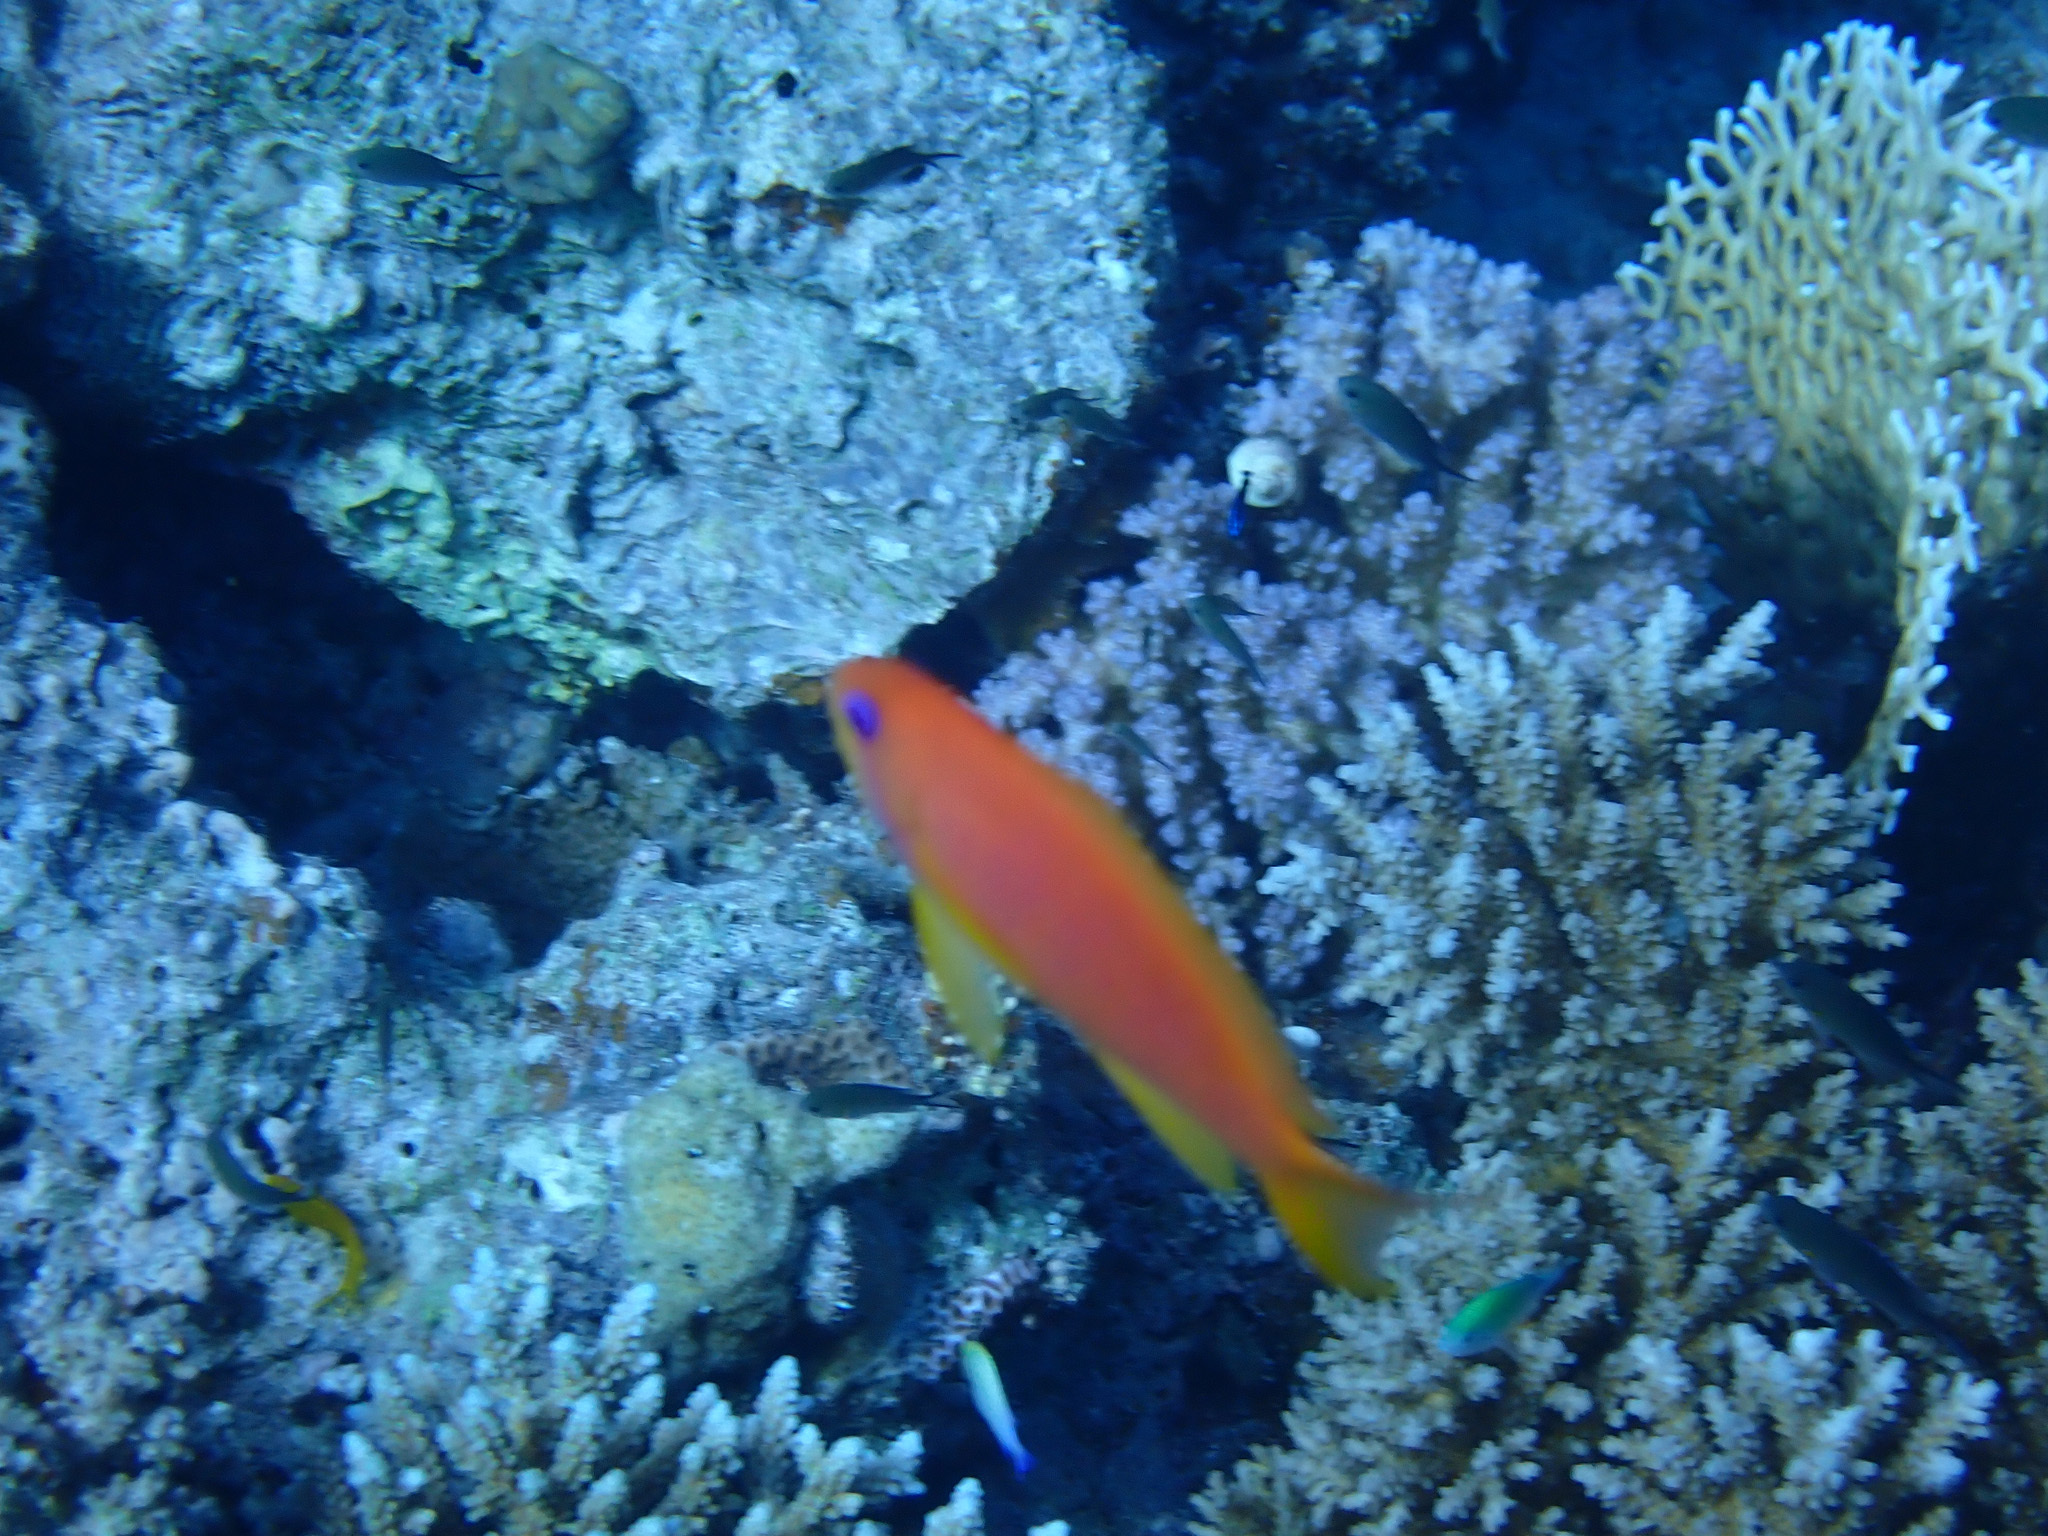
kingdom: Animalia
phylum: Chordata
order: Perciformes
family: Serranidae
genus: Pseudanthias
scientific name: Pseudanthias squamipinnis
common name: Scalefin anthias
